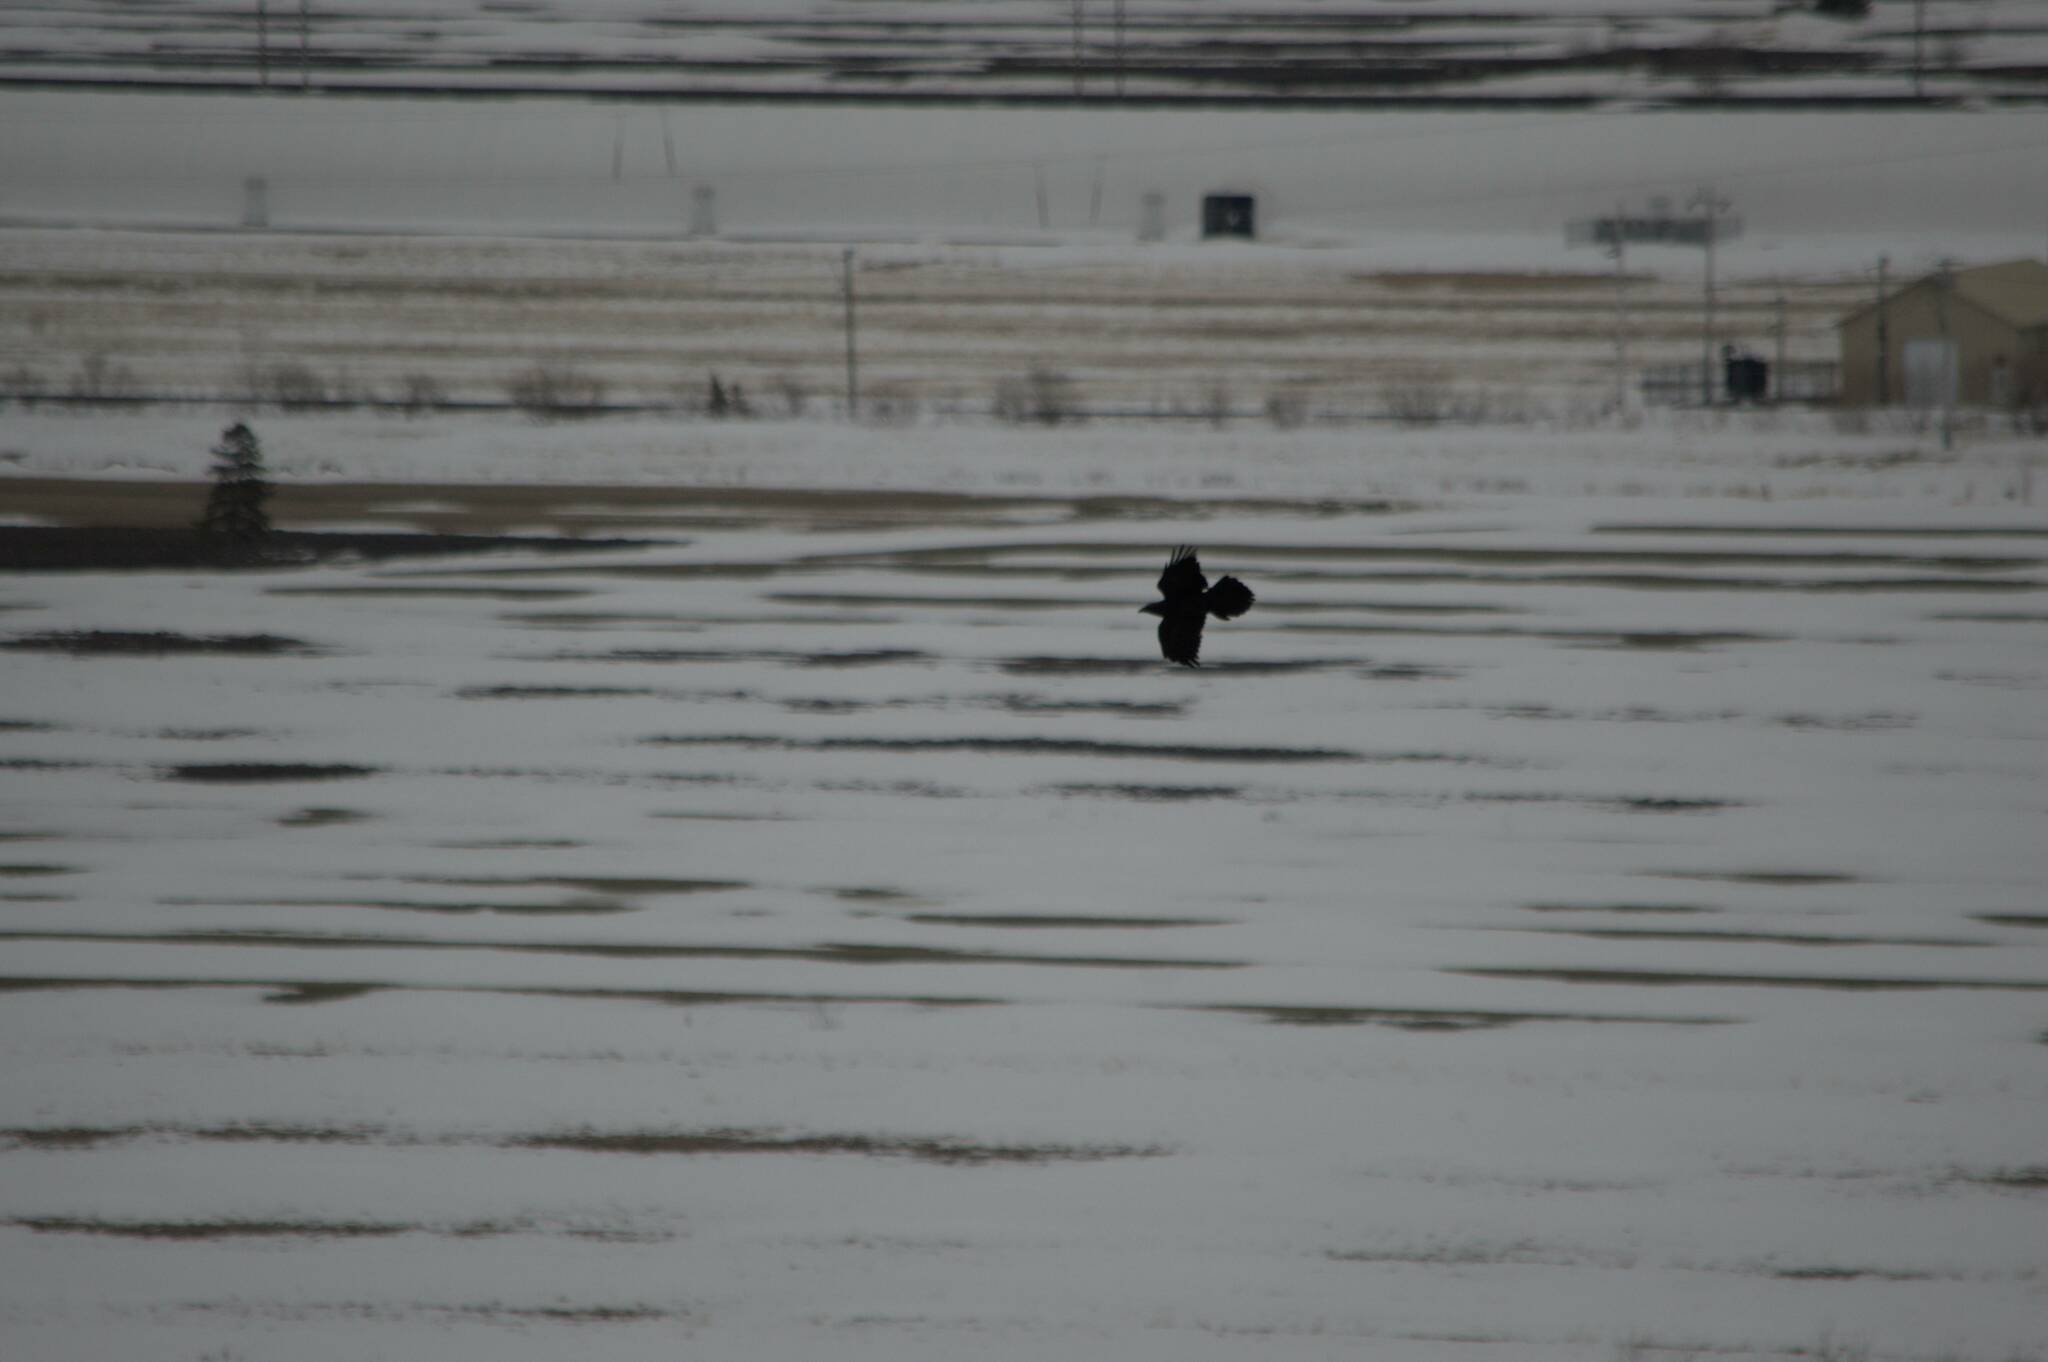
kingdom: Animalia
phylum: Chordata
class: Aves
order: Passeriformes
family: Corvidae
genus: Corvus
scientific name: Corvus corax
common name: Common raven
